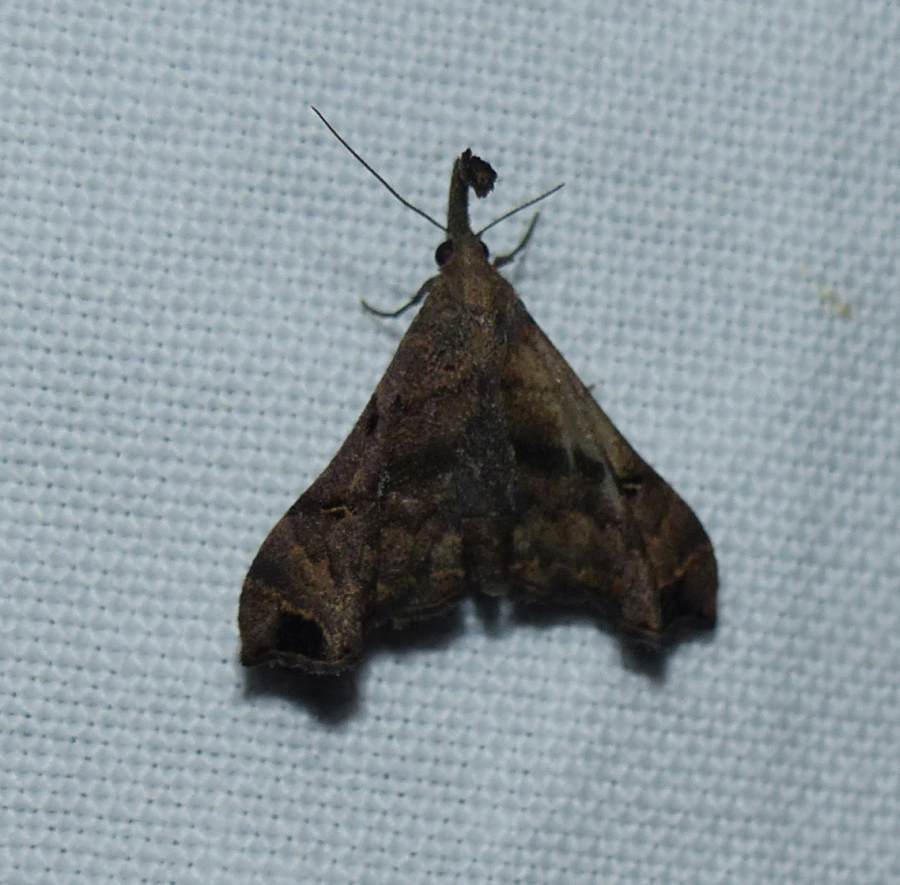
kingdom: Animalia
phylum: Arthropoda
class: Insecta
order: Lepidoptera
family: Erebidae
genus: Palthis
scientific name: Palthis asopialis
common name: Faint-spotted palthis moth
